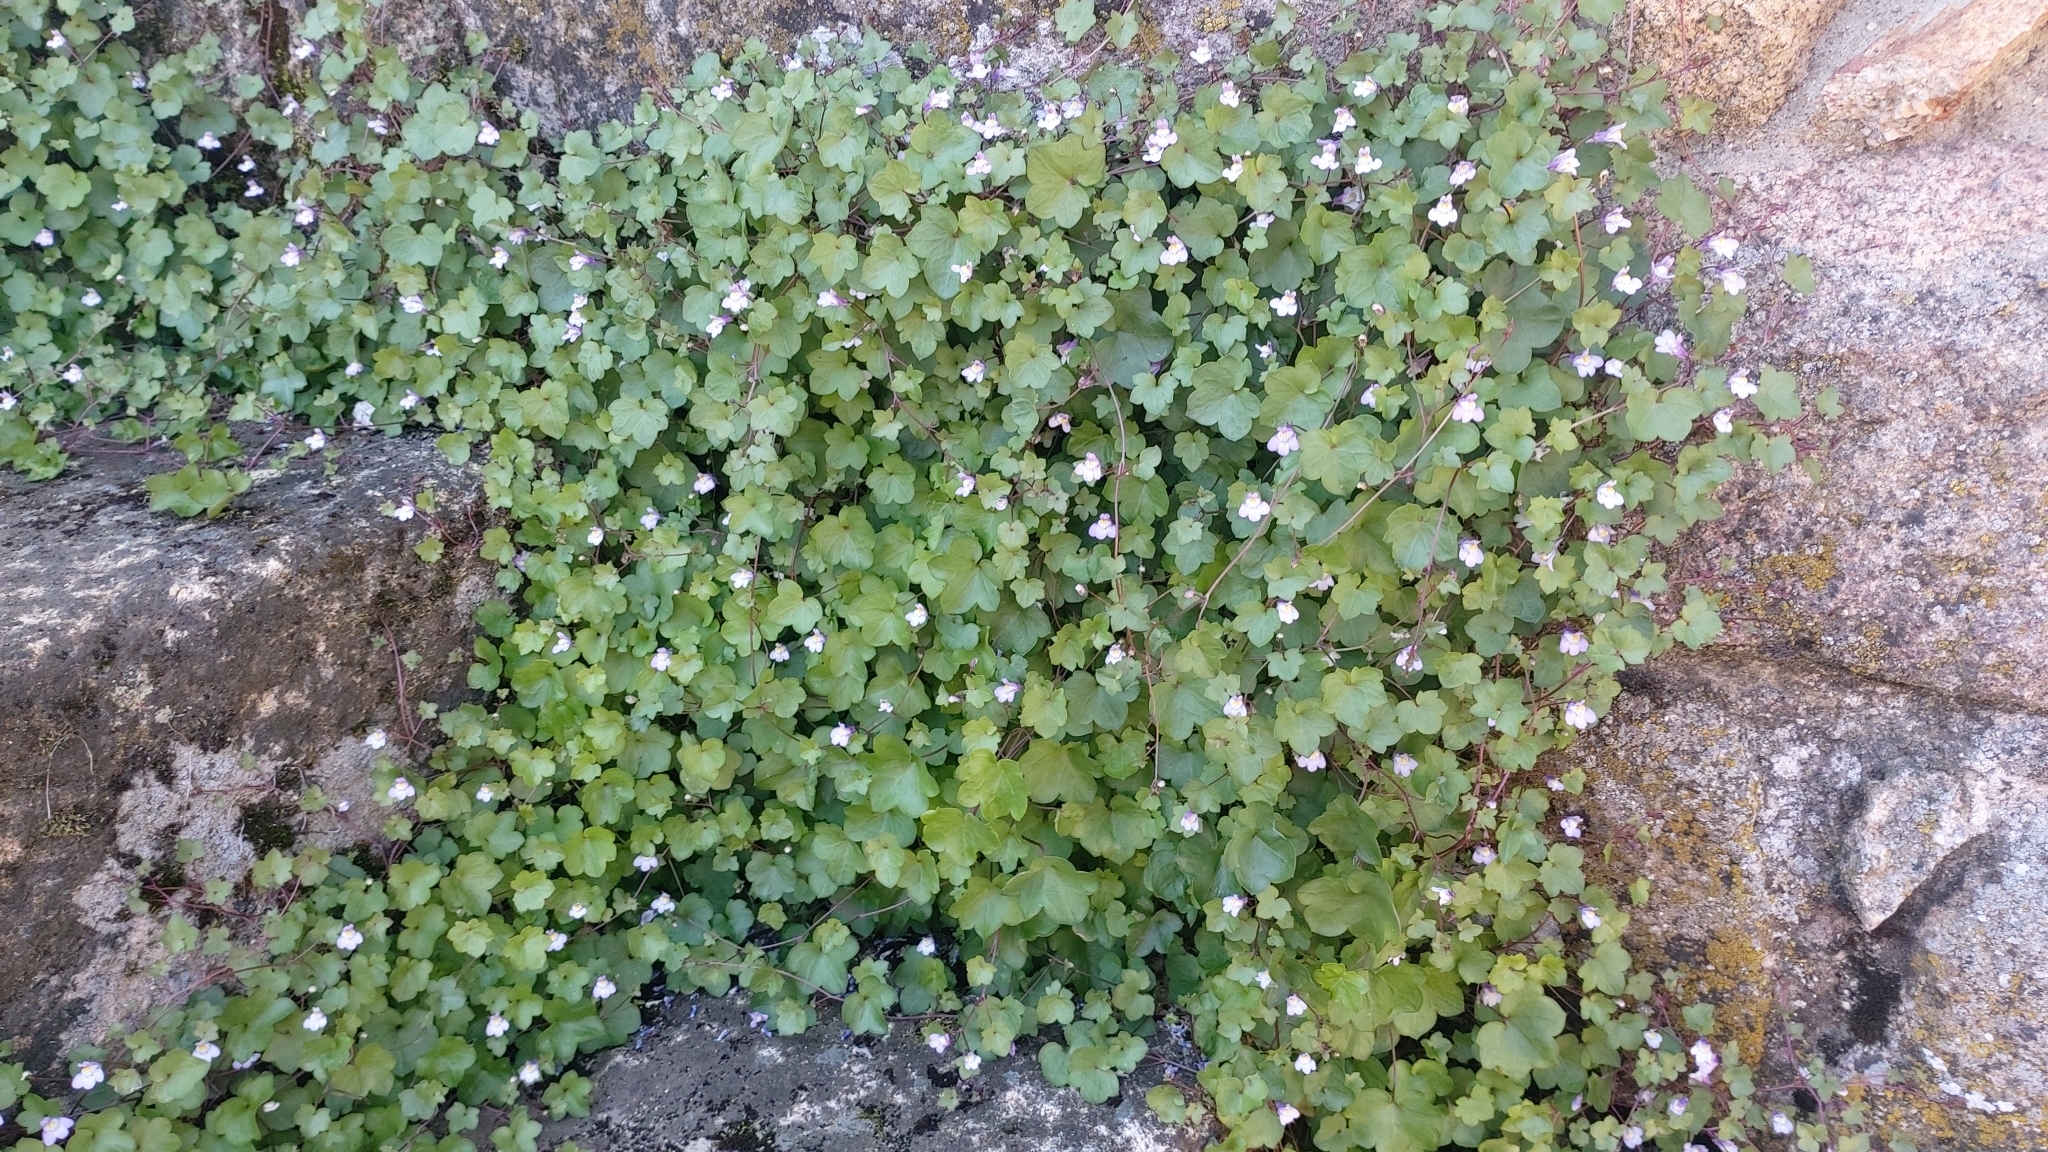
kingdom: Plantae
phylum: Tracheophyta
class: Magnoliopsida
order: Lamiales
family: Plantaginaceae
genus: Cymbalaria
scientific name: Cymbalaria muralis
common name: Ivy-leaved toadflax
